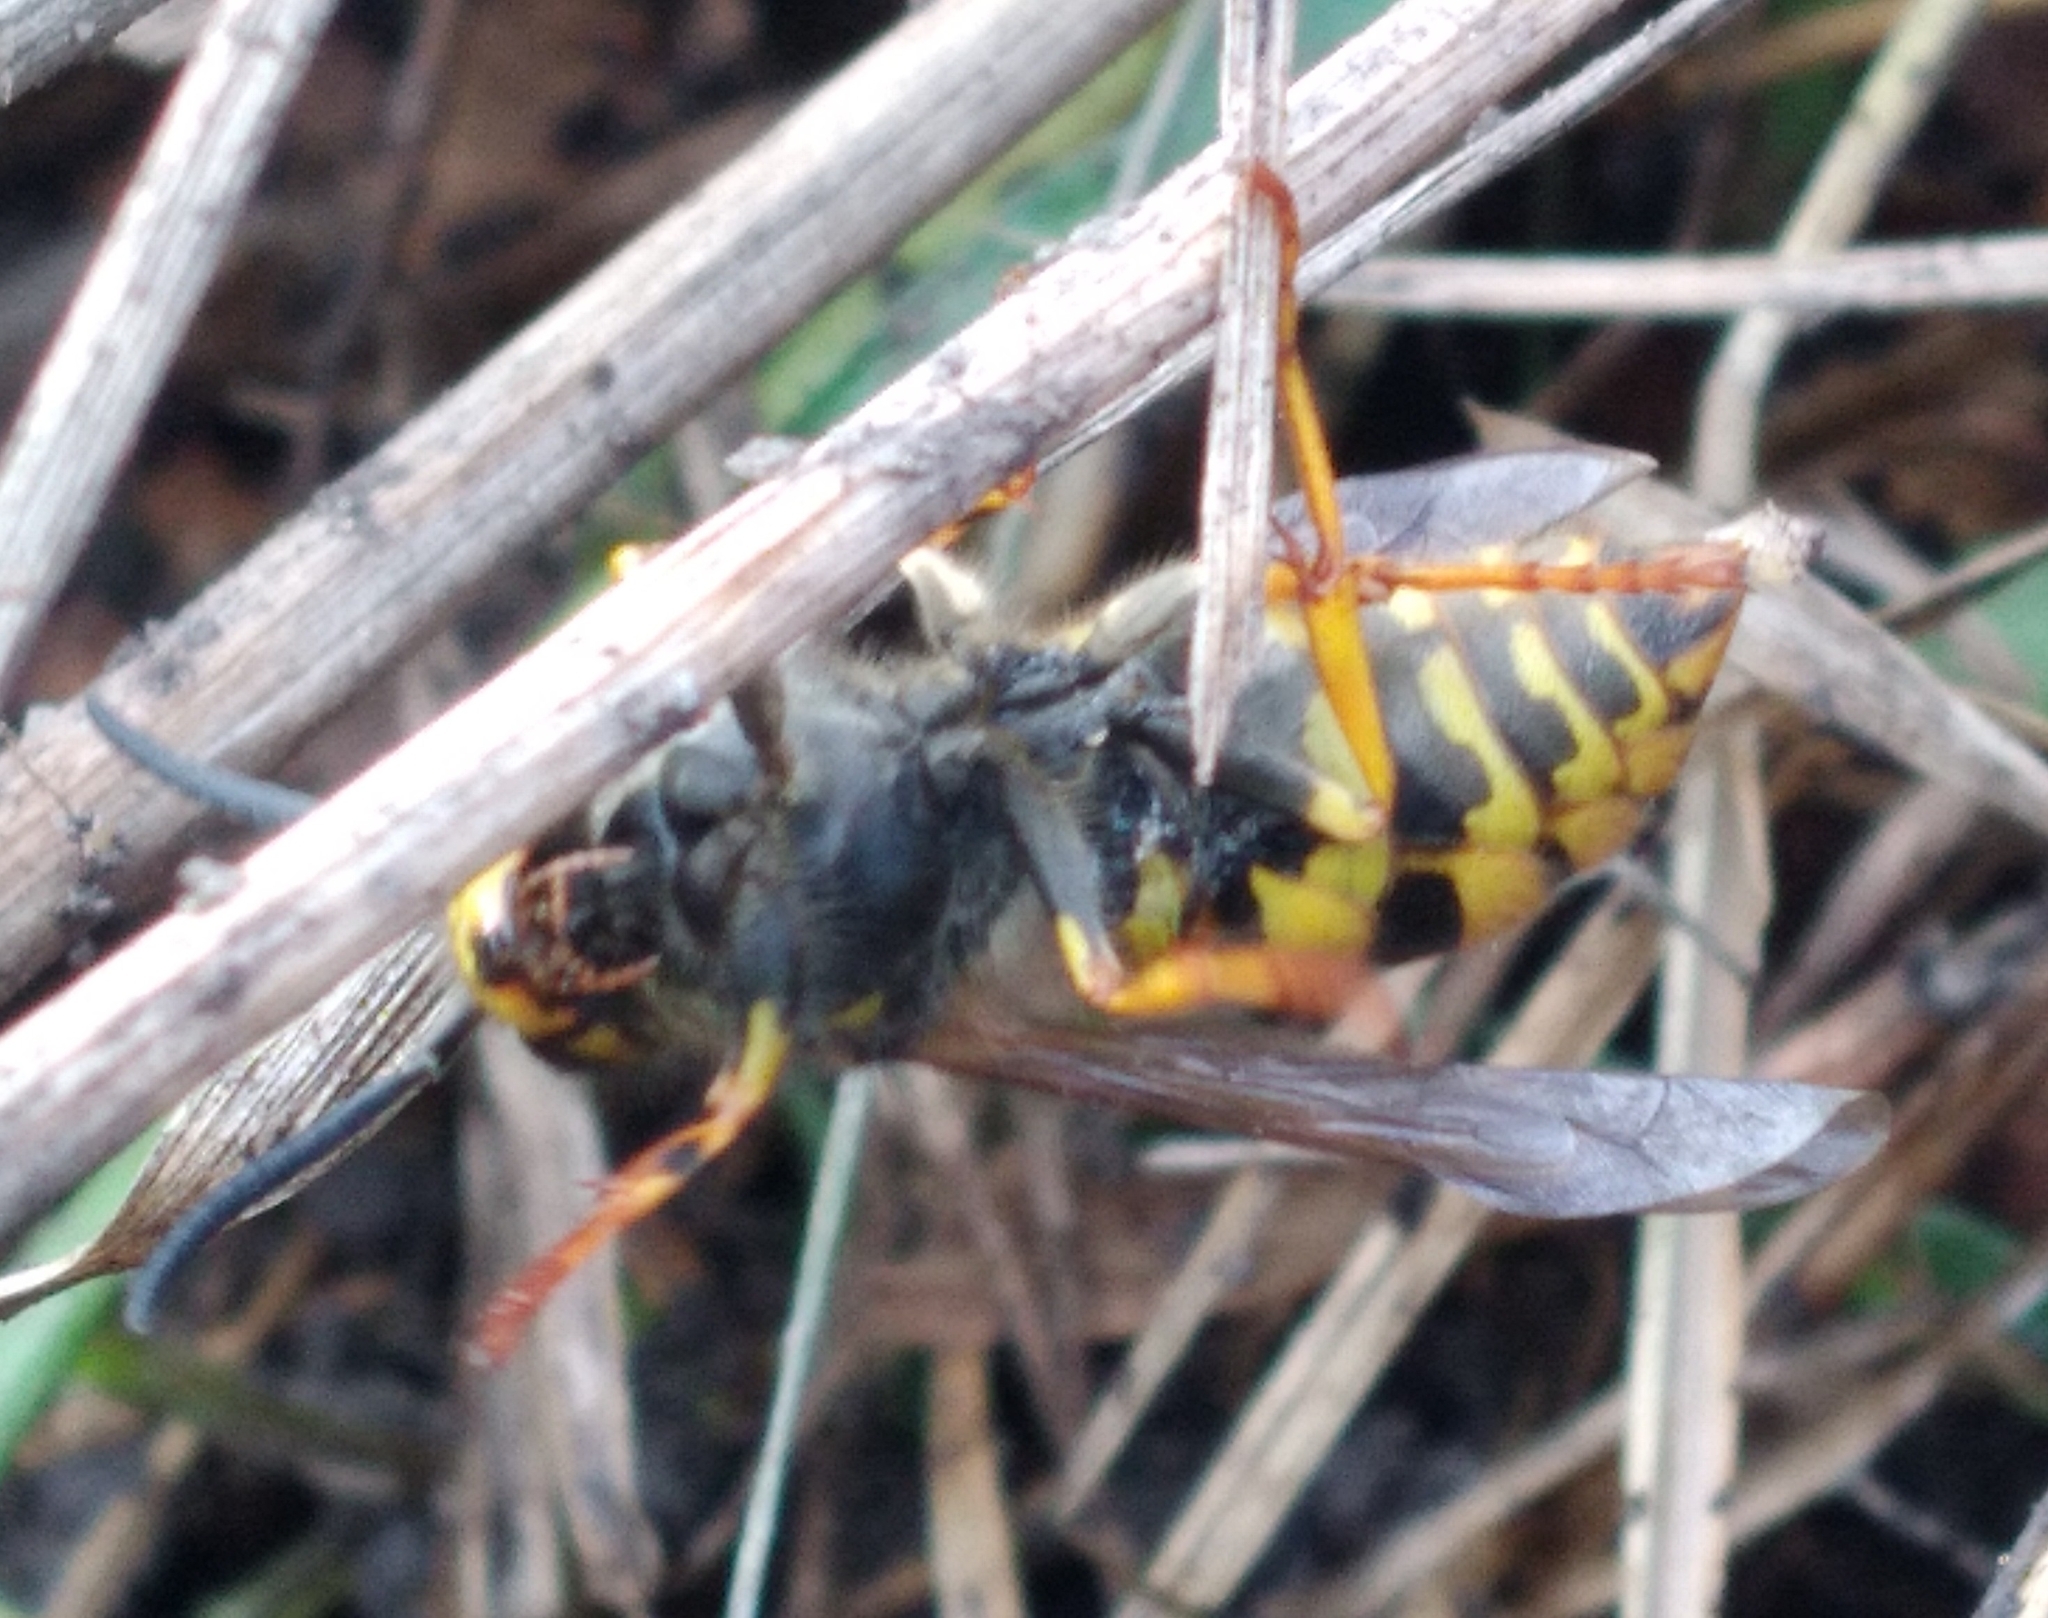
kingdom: Animalia
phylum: Arthropoda
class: Insecta
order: Hymenoptera
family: Vespidae
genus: Vespula
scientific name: Vespula germanica
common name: German wasp
